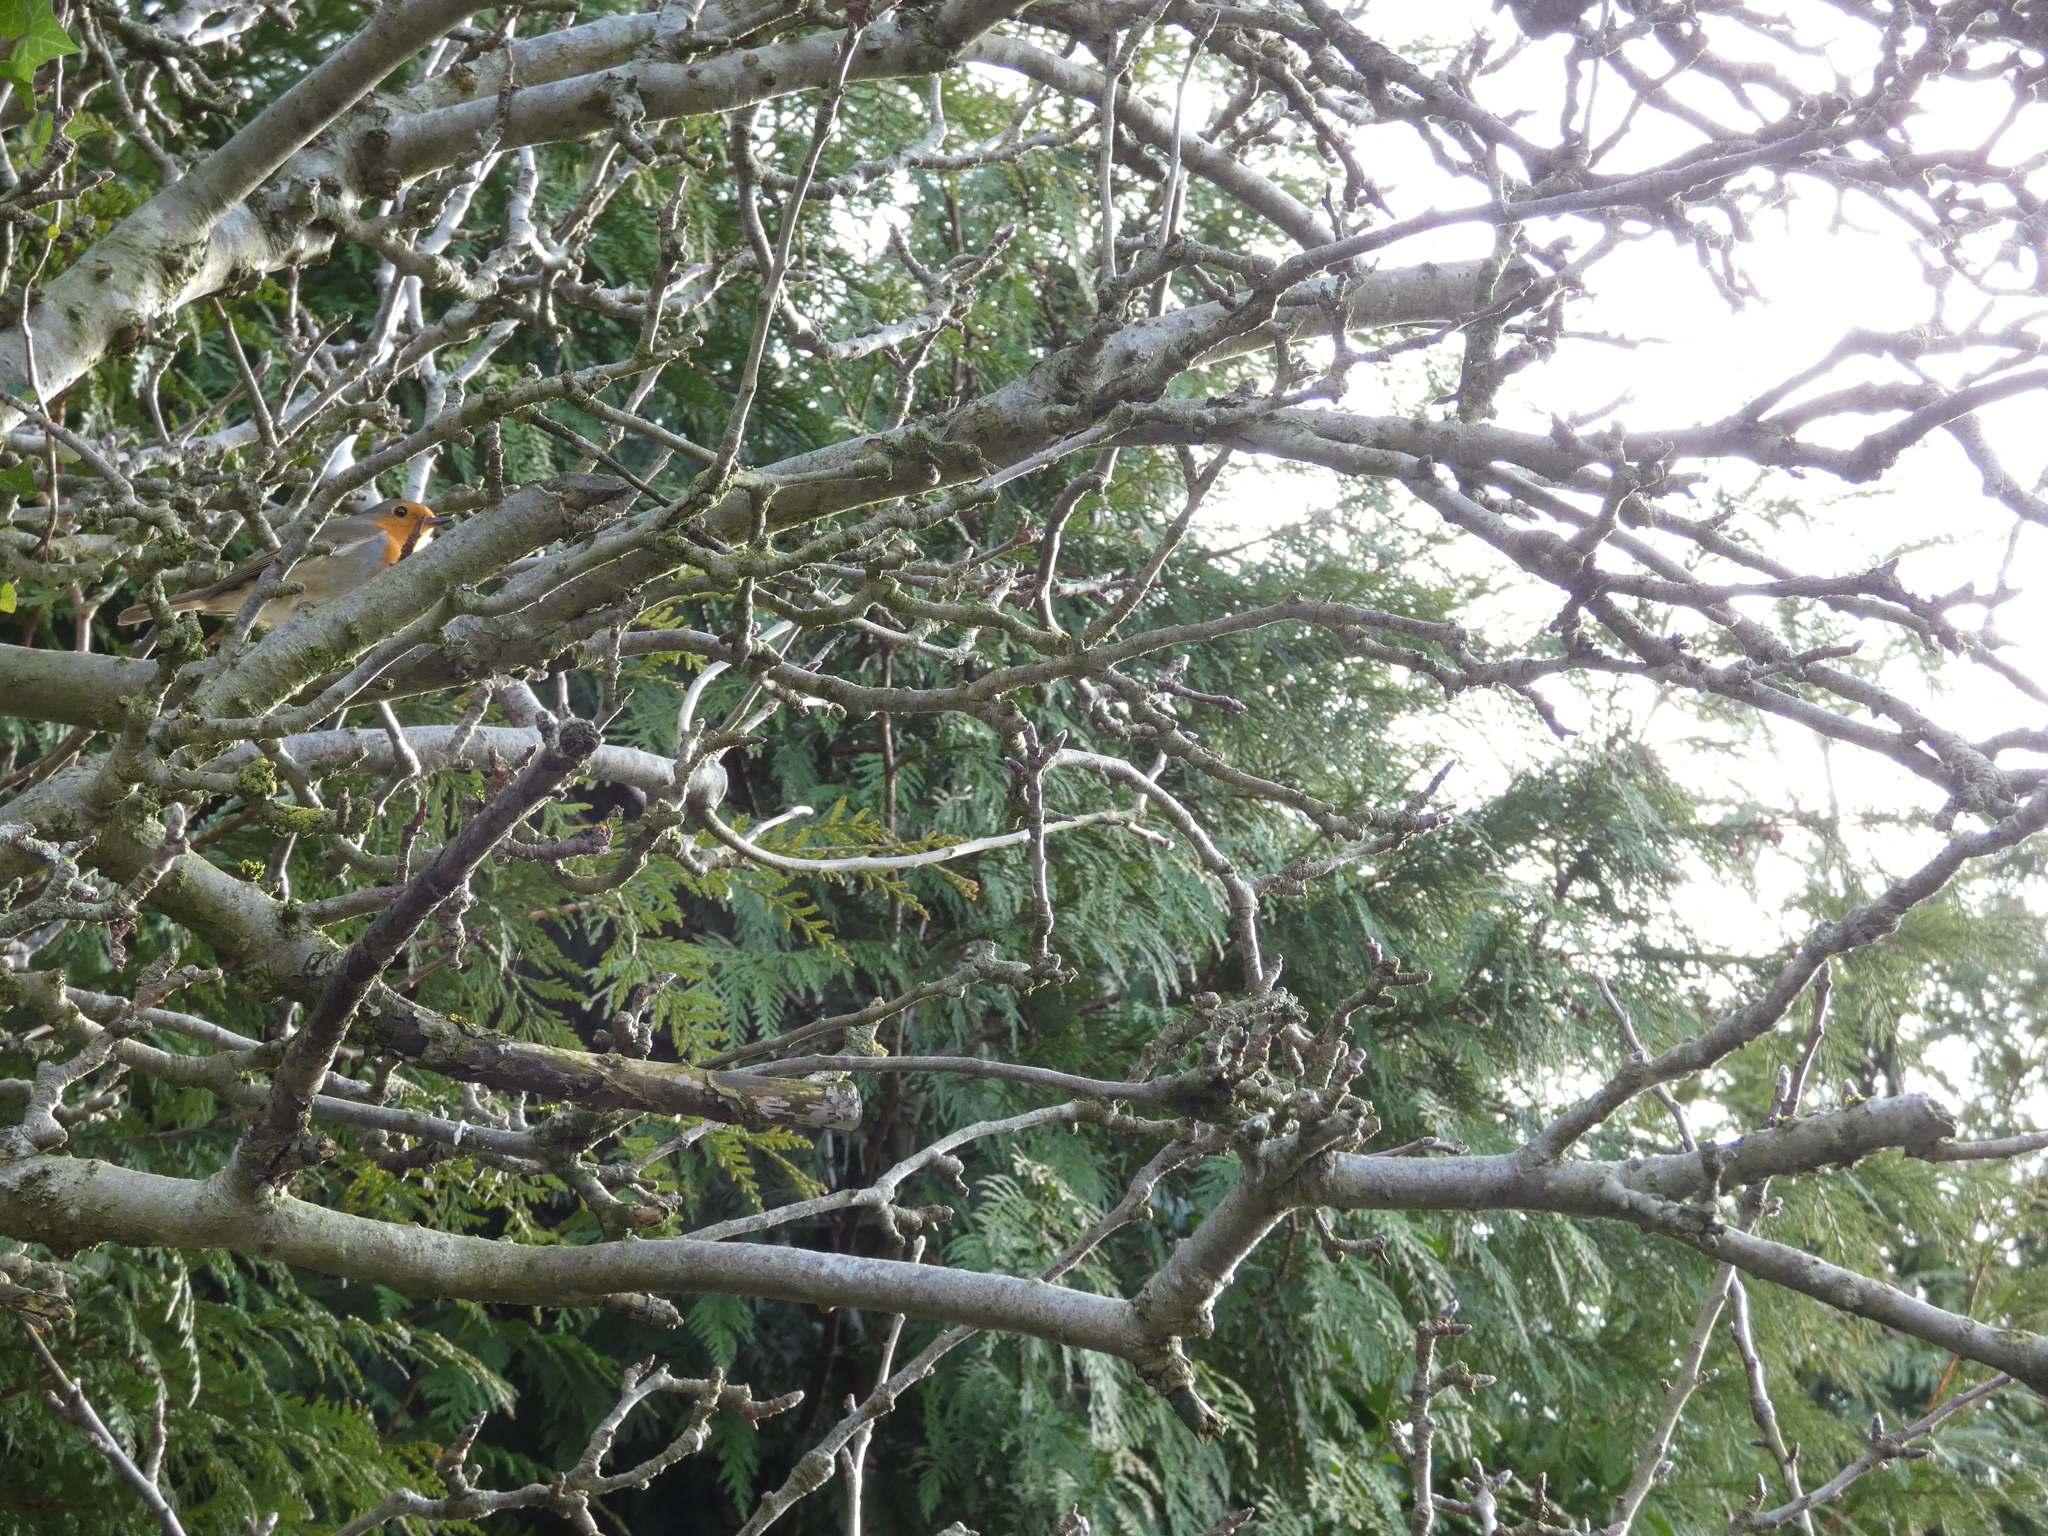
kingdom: Animalia
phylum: Chordata
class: Aves
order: Passeriformes
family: Muscicapidae
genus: Erithacus
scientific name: Erithacus rubecula
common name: European robin
